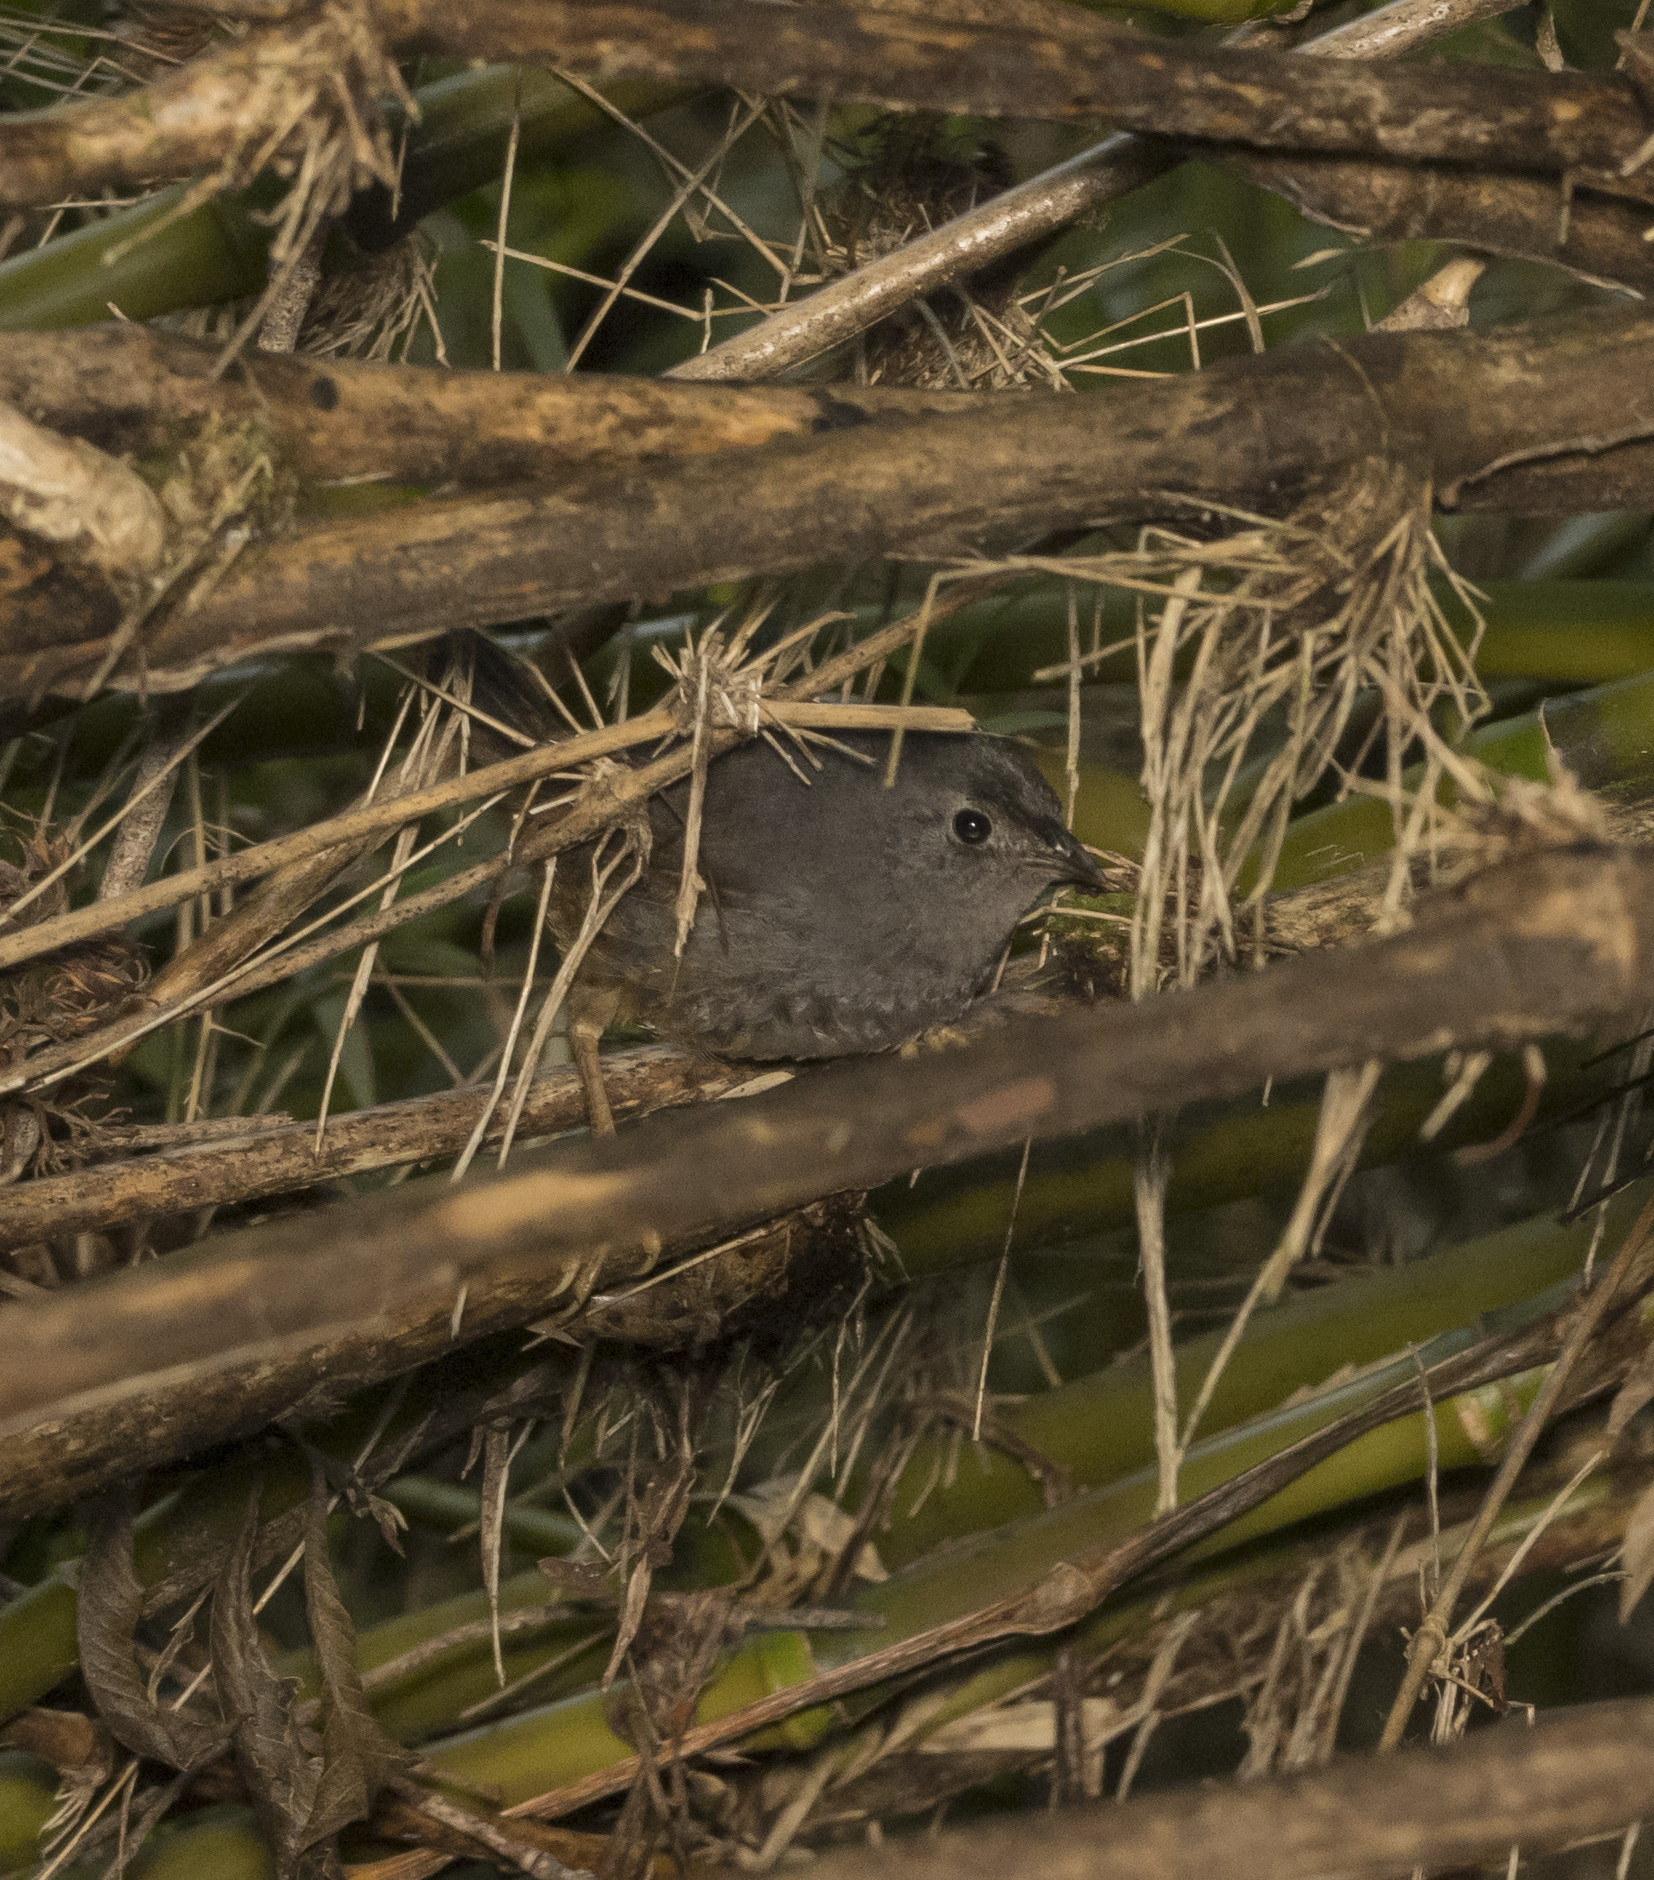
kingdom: Animalia
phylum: Chordata
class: Aves
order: Passeriformes
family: Rhinocryptidae
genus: Eugralla
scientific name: Eugralla paradoxa
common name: Ochre-flanked tapaculo
